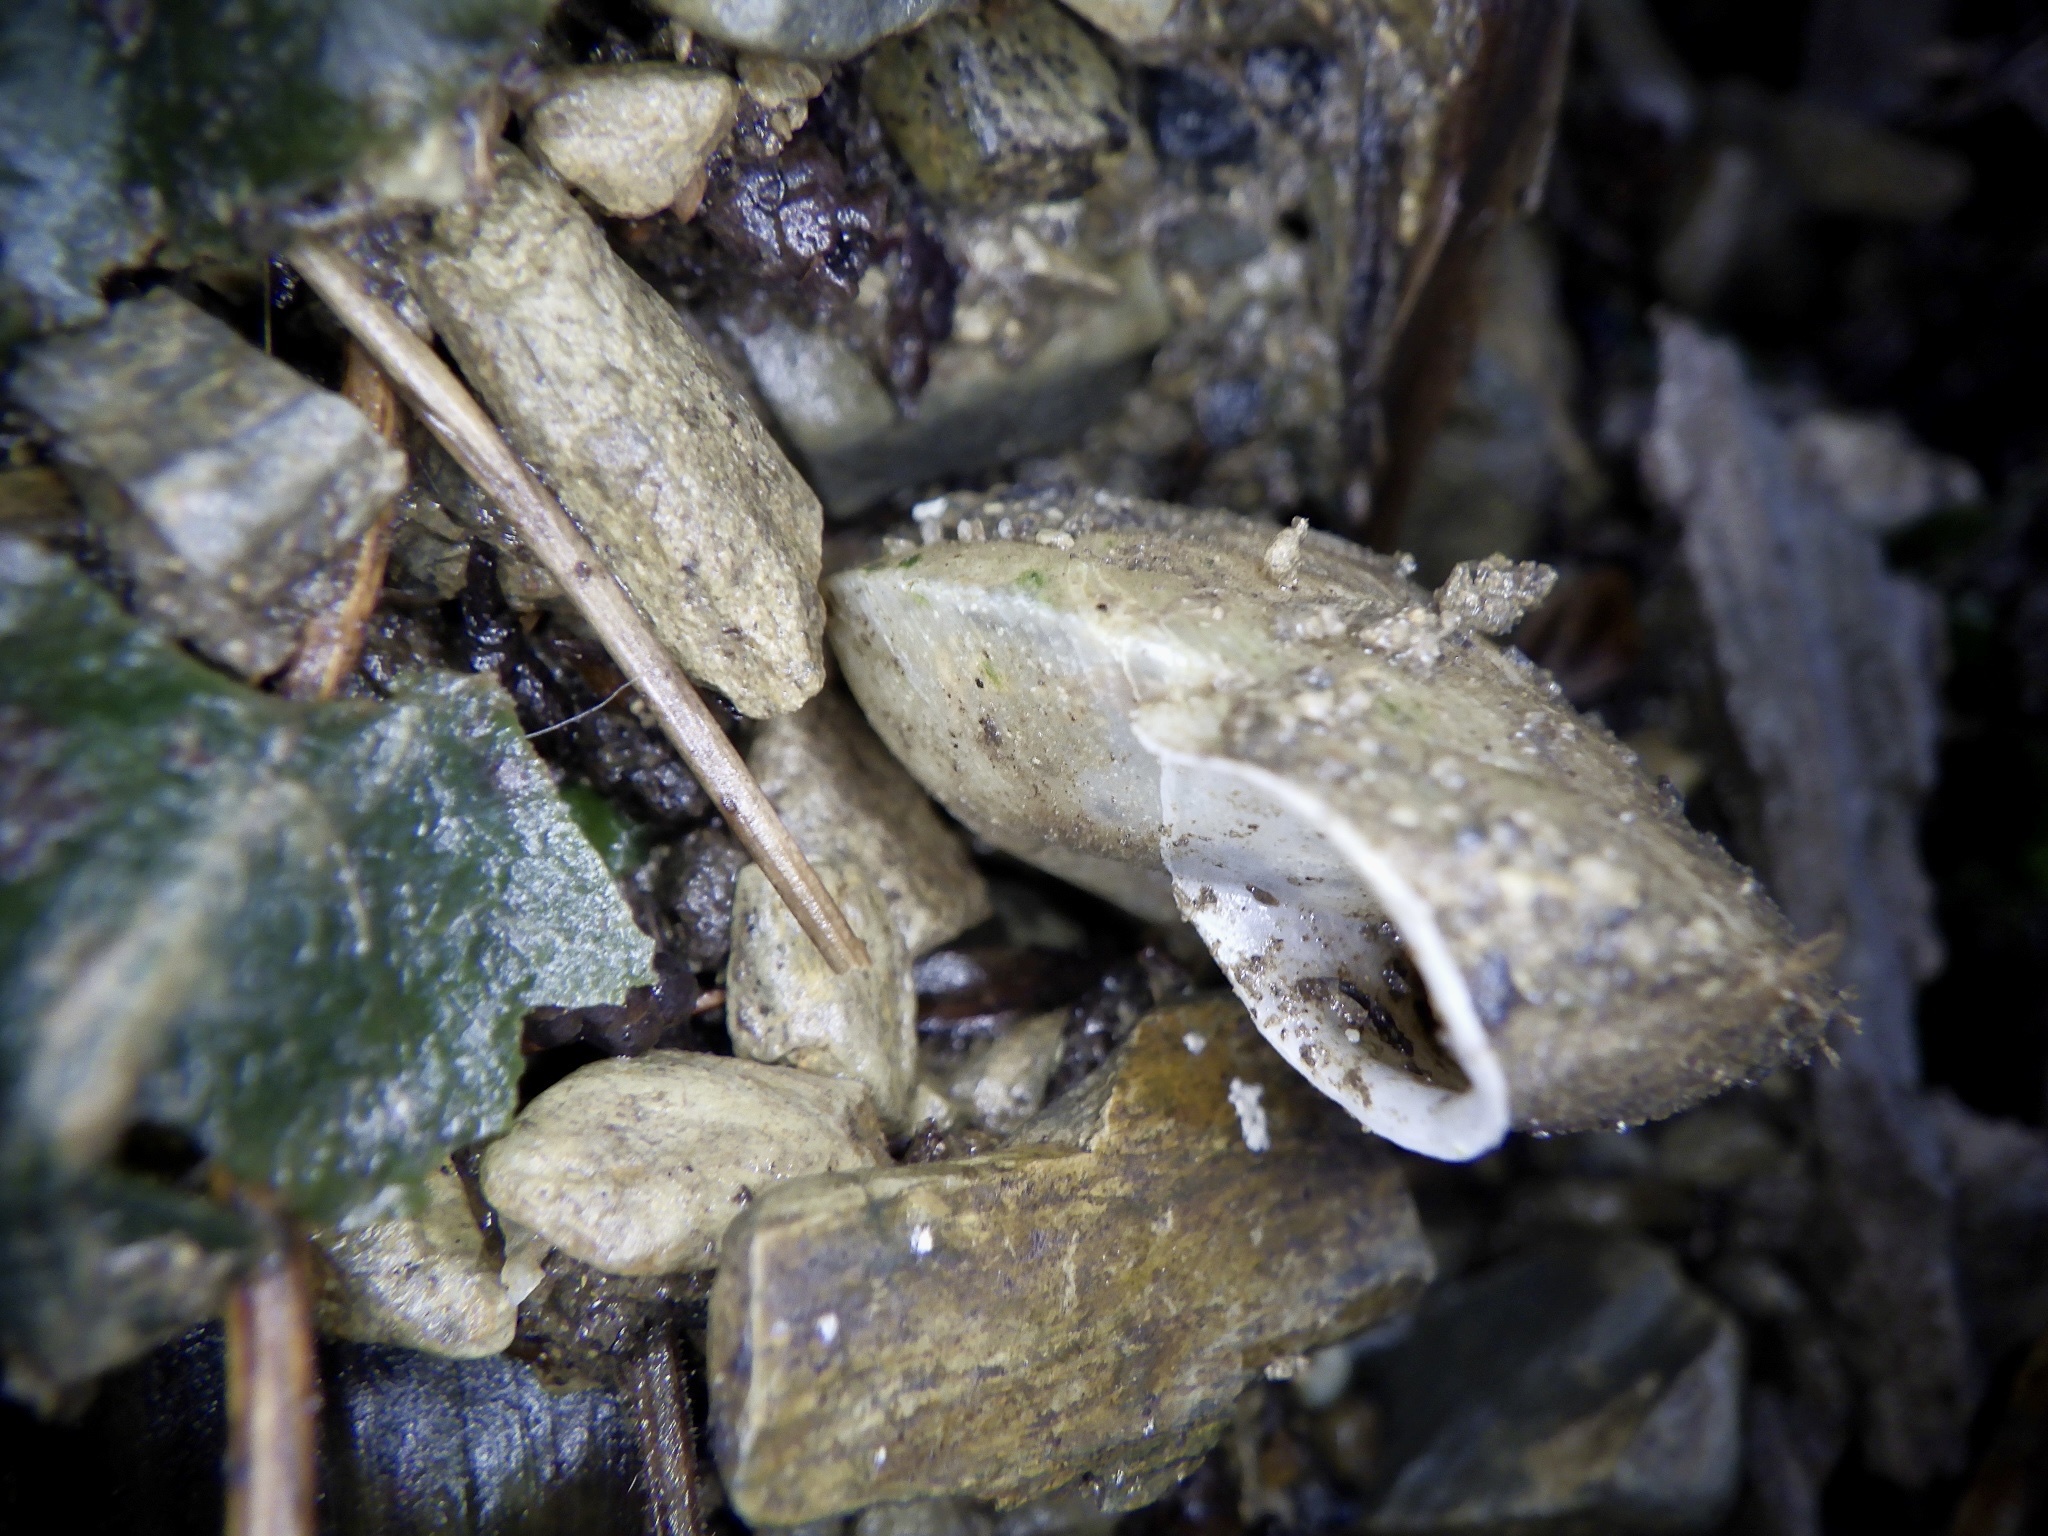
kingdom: Animalia
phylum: Mollusca
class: Gastropoda
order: Stylommatophora
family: Camaenidae
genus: Plectotropis
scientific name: Plectotropis vulgivaga
